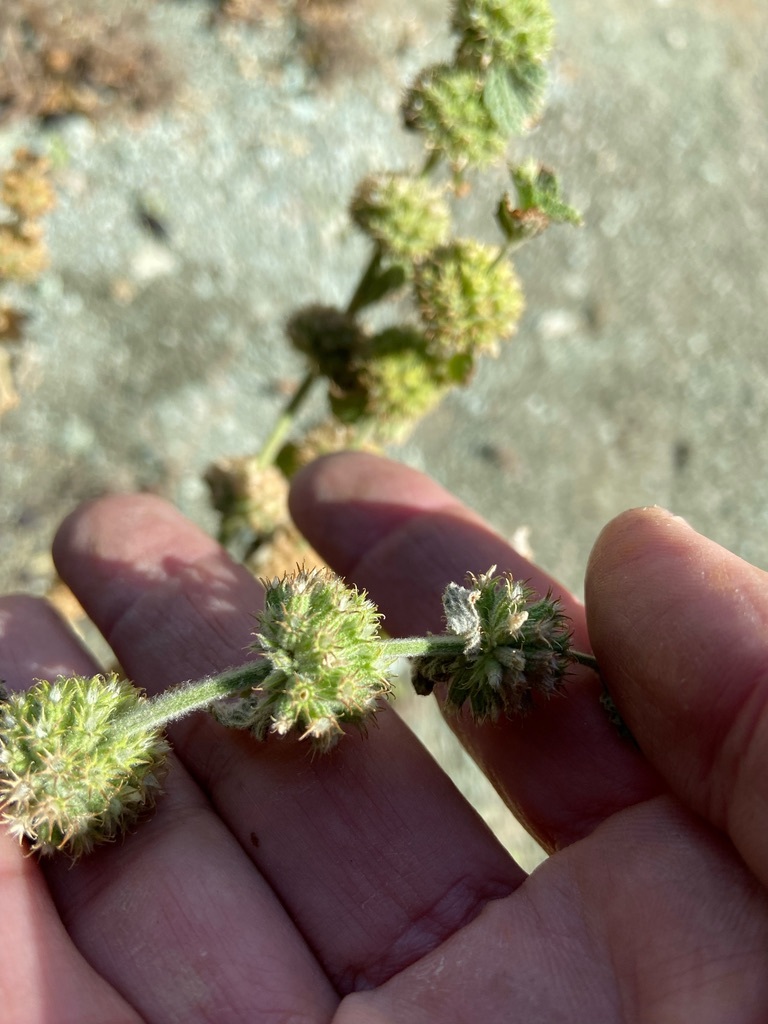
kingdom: Plantae
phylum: Tracheophyta
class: Magnoliopsida
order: Lamiales
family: Lamiaceae
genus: Marrubium
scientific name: Marrubium vulgare
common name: Horehound
